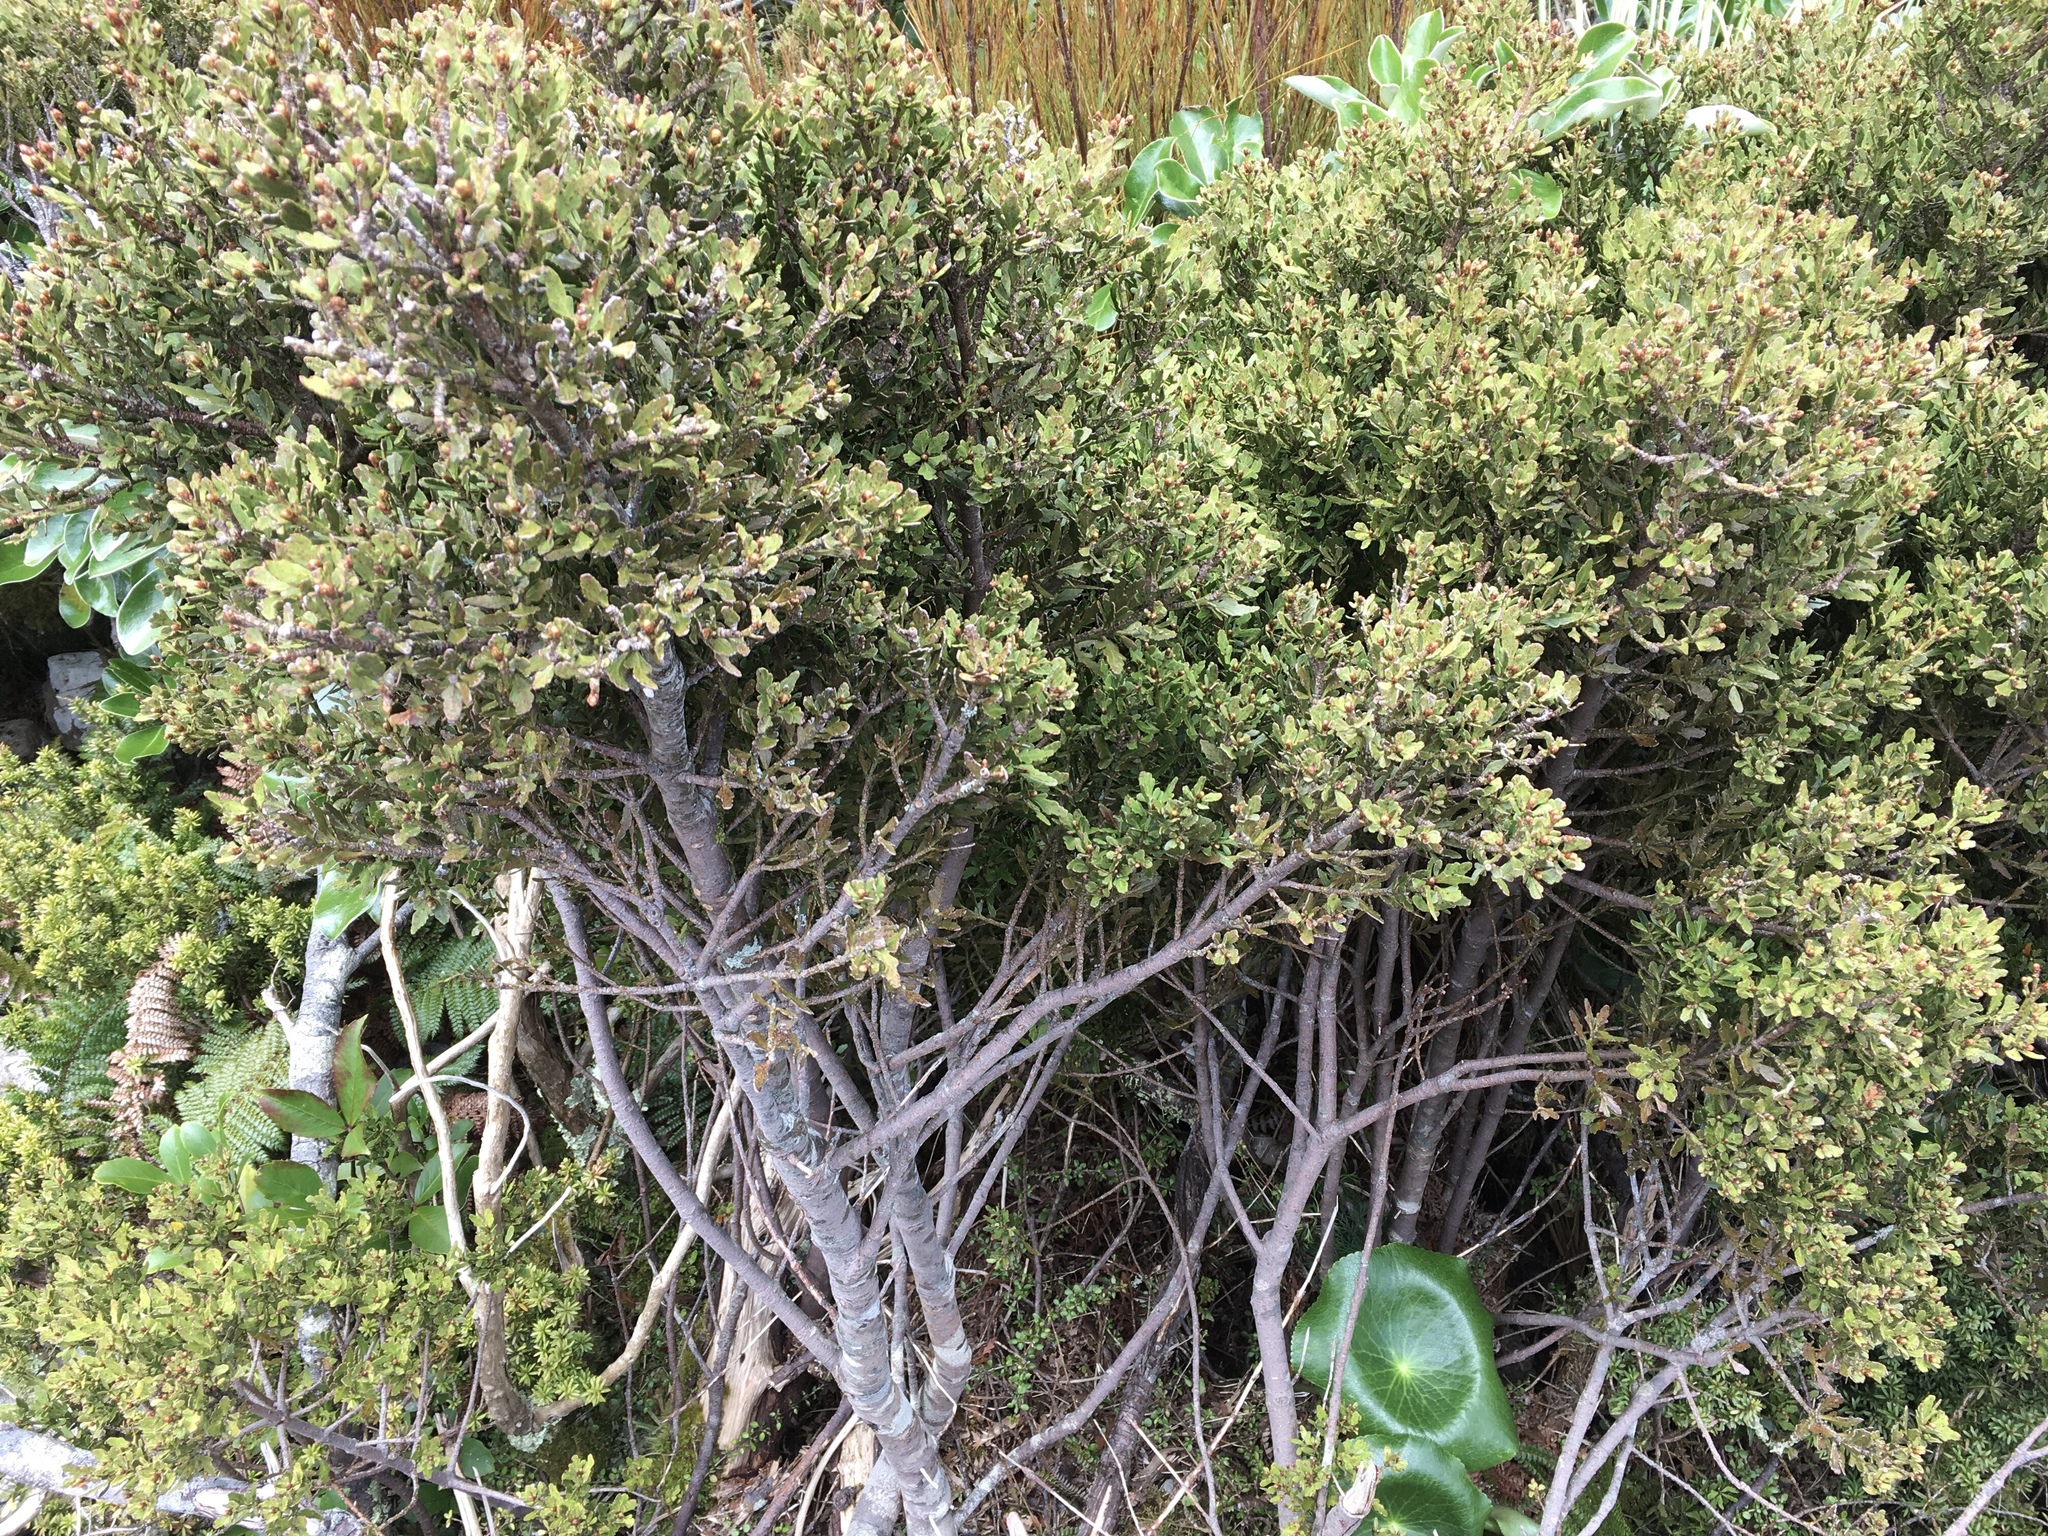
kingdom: Plantae
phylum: Tracheophyta
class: Pinopsida
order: Pinales
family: Phyllocladaceae
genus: Phyllocladus
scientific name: Phyllocladus trichomanoides
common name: Celery pine
